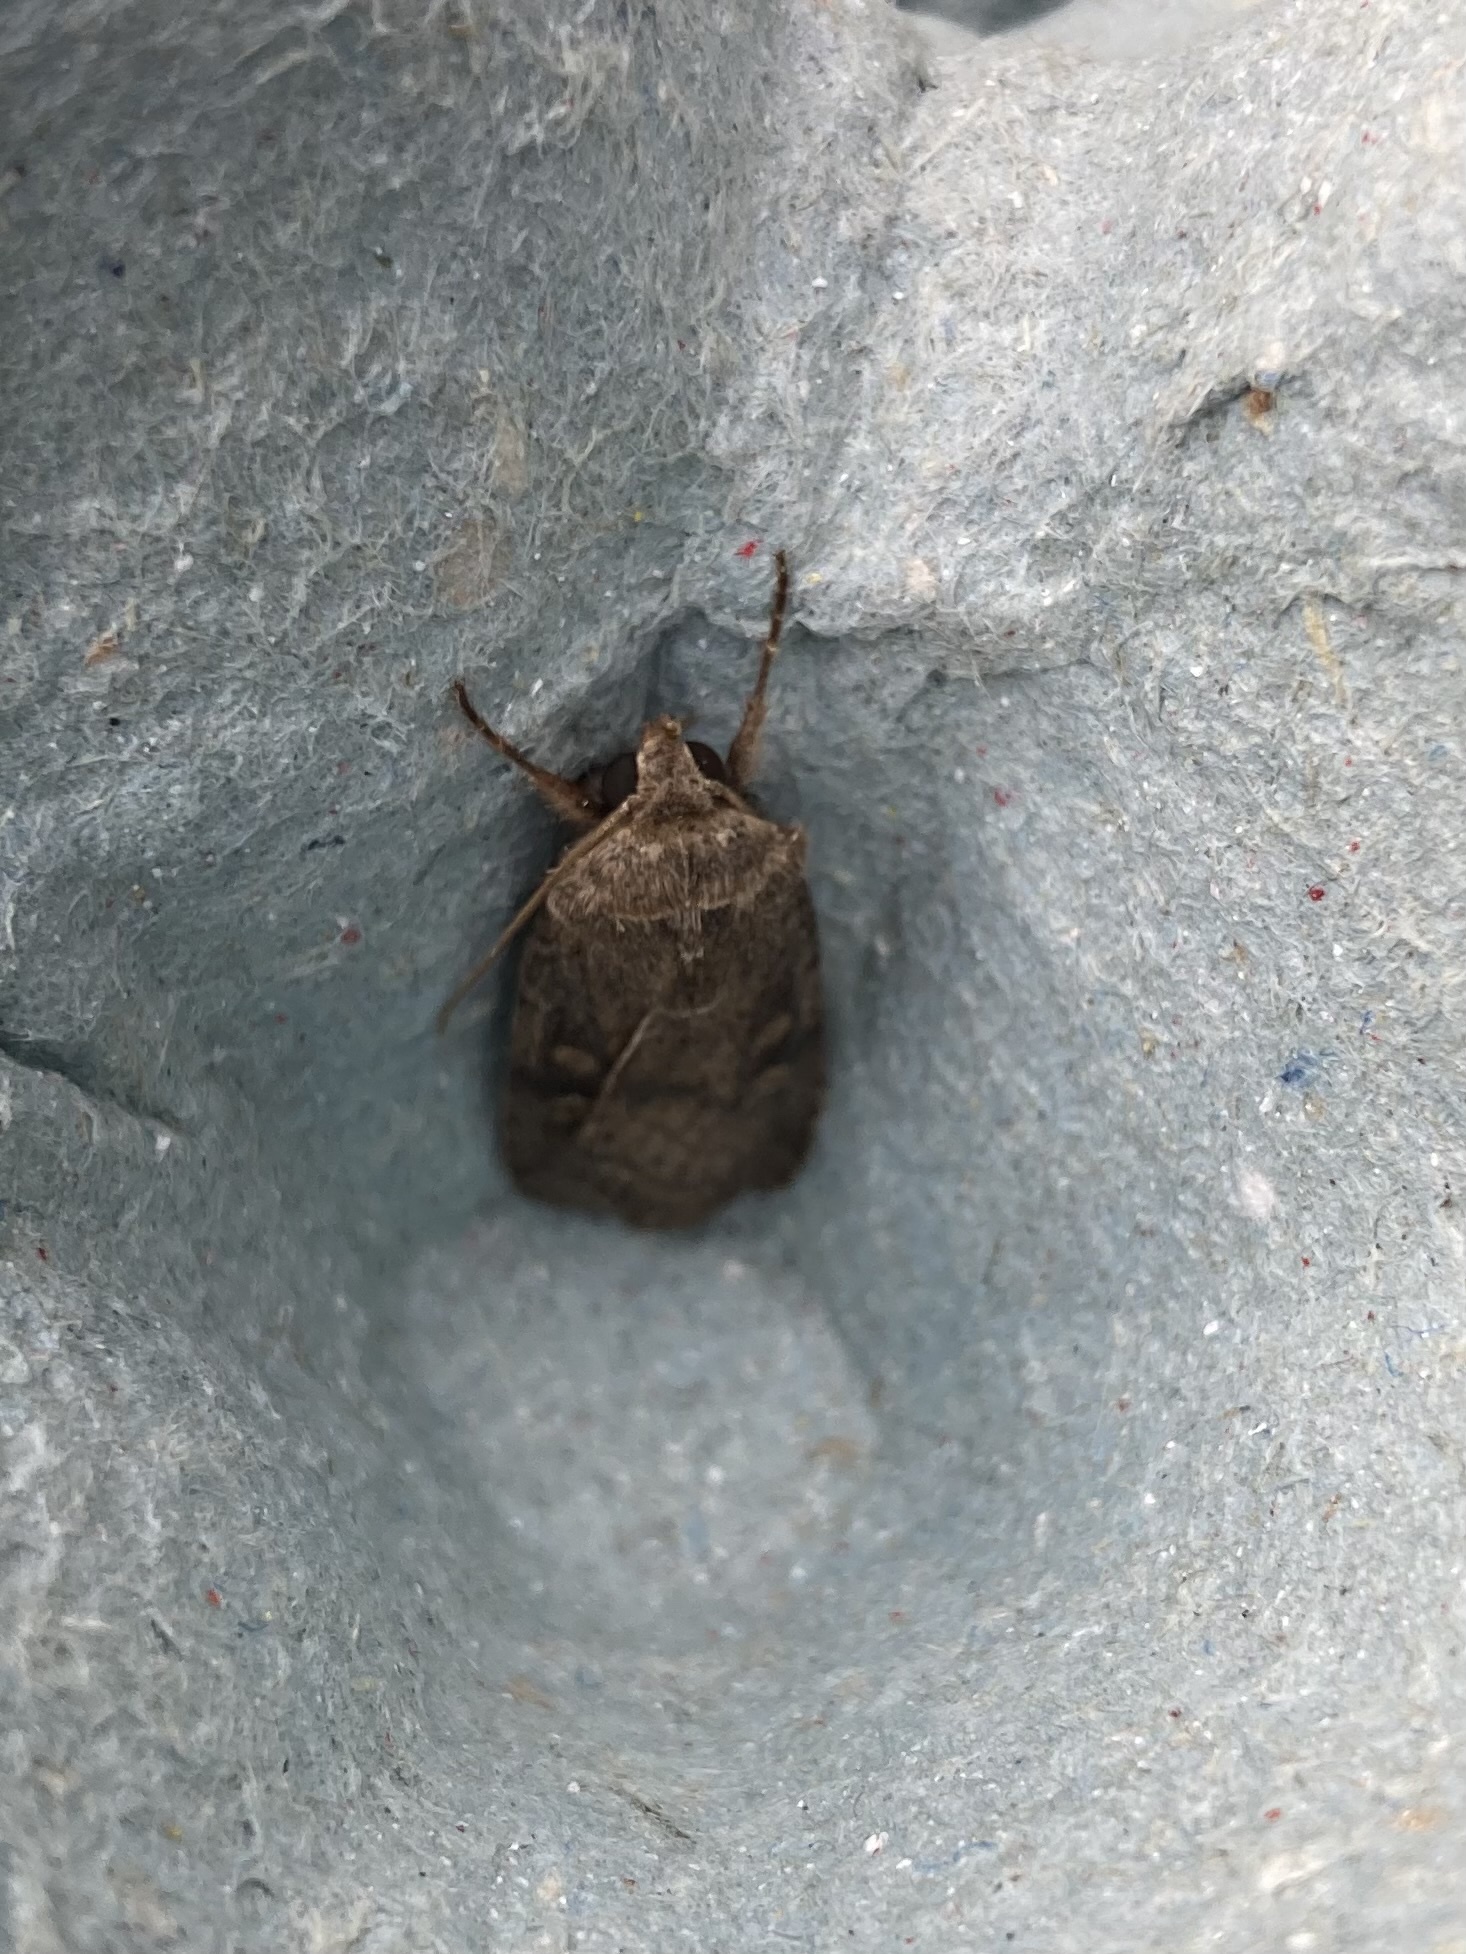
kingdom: Animalia
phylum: Arthropoda
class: Insecta
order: Lepidoptera
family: Noctuidae
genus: Xestia
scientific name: Xestia xanthographa
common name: Square-spot rustic
